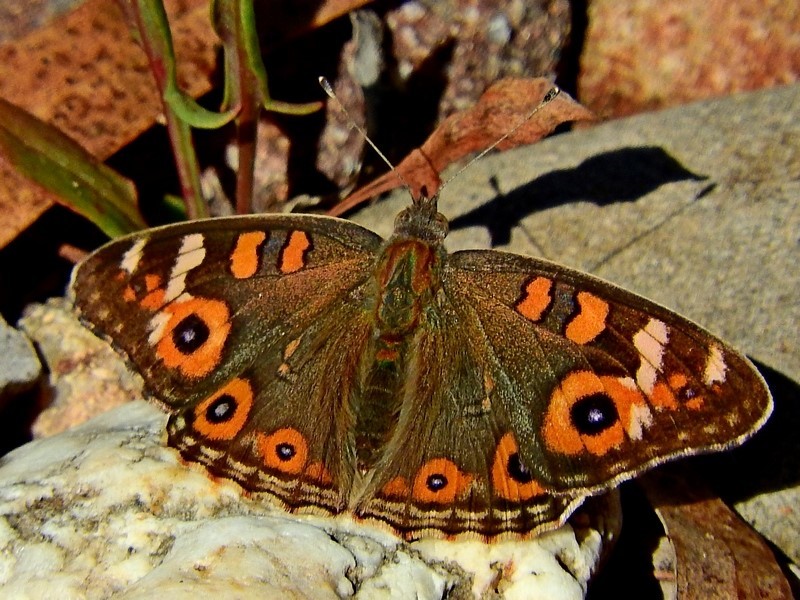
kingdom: Animalia
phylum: Arthropoda
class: Insecta
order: Lepidoptera
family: Nymphalidae
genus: Junonia
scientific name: Junonia villida
